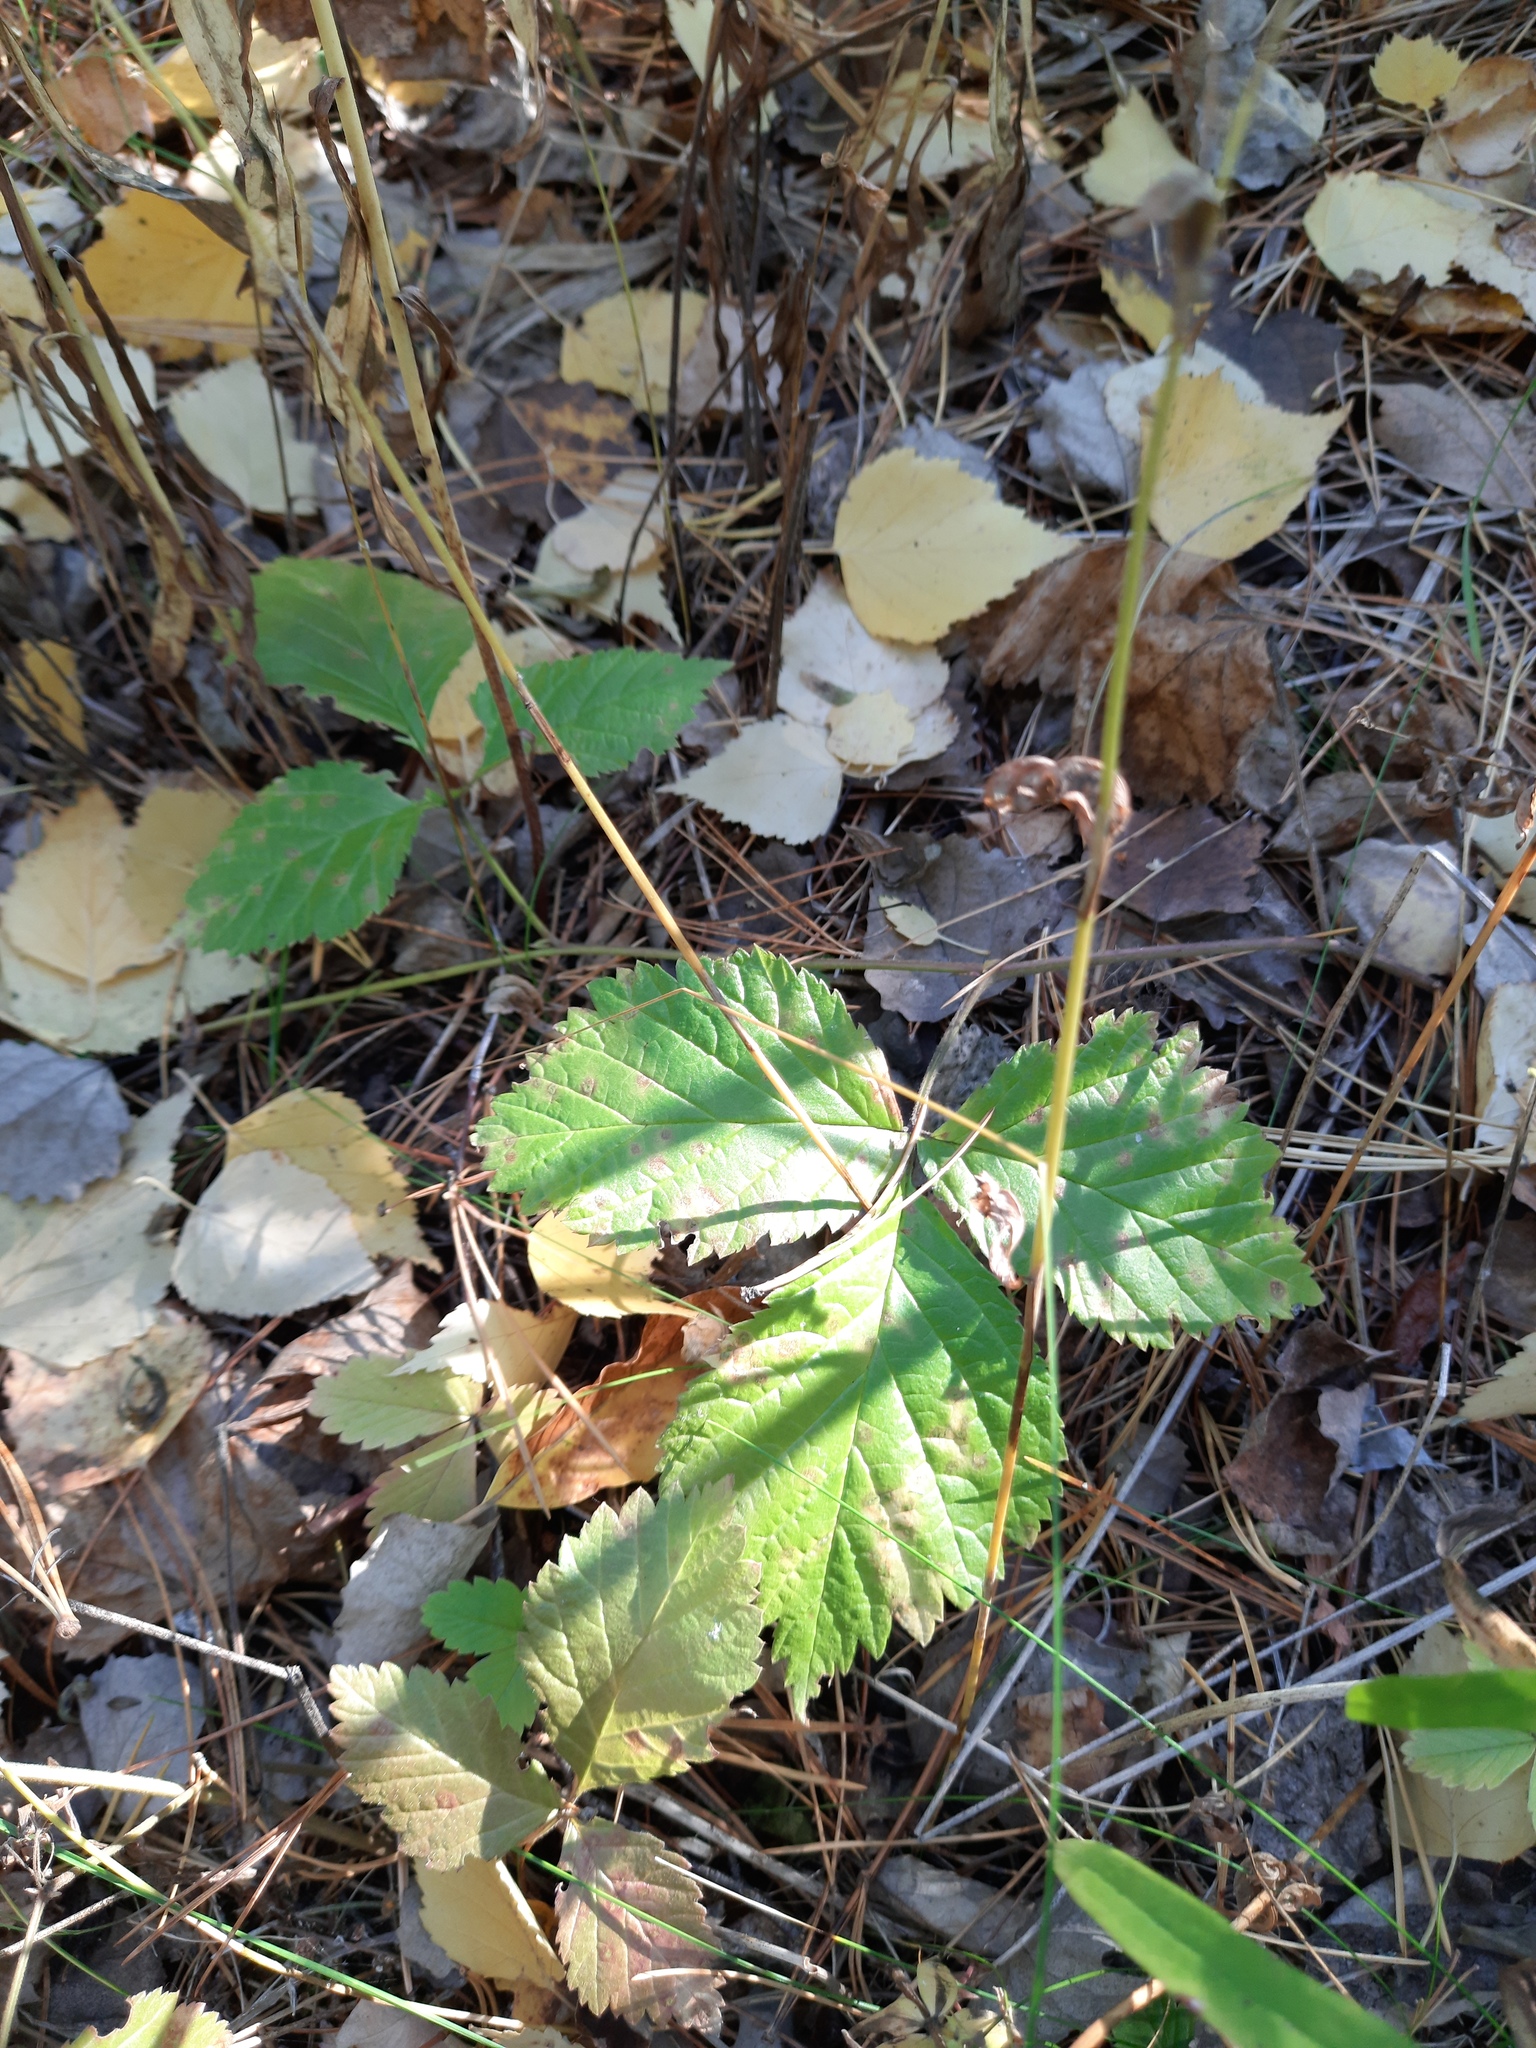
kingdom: Plantae
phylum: Tracheophyta
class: Magnoliopsida
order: Rosales
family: Rosaceae
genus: Rubus
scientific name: Rubus saxatilis
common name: Stone bramble
